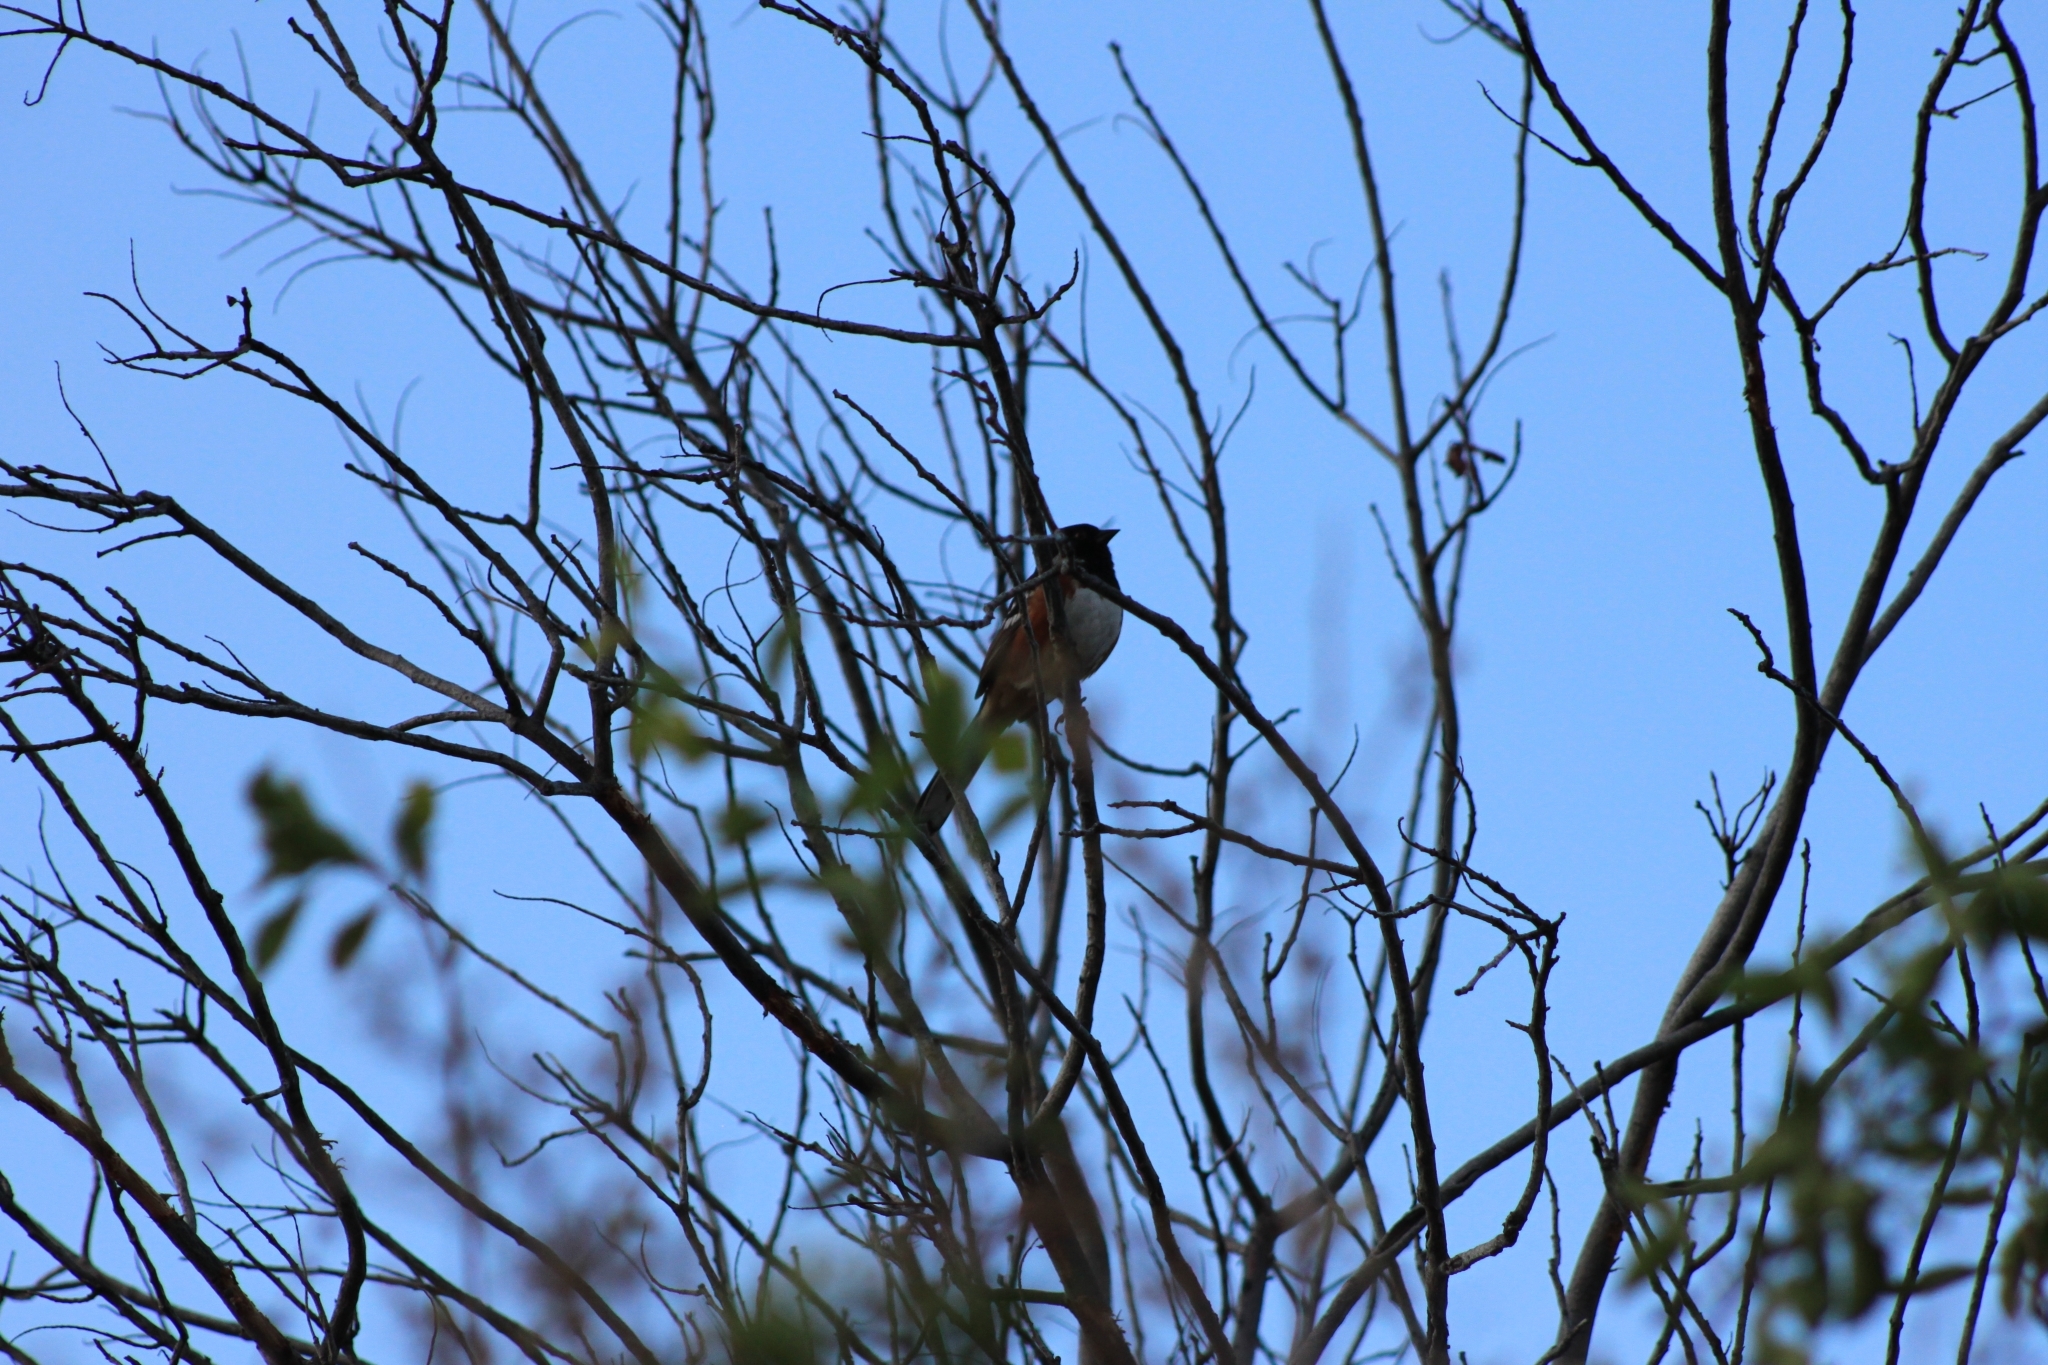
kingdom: Animalia
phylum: Chordata
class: Aves
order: Passeriformes
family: Passerellidae
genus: Pipilo
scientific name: Pipilo maculatus
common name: Spotted towhee
